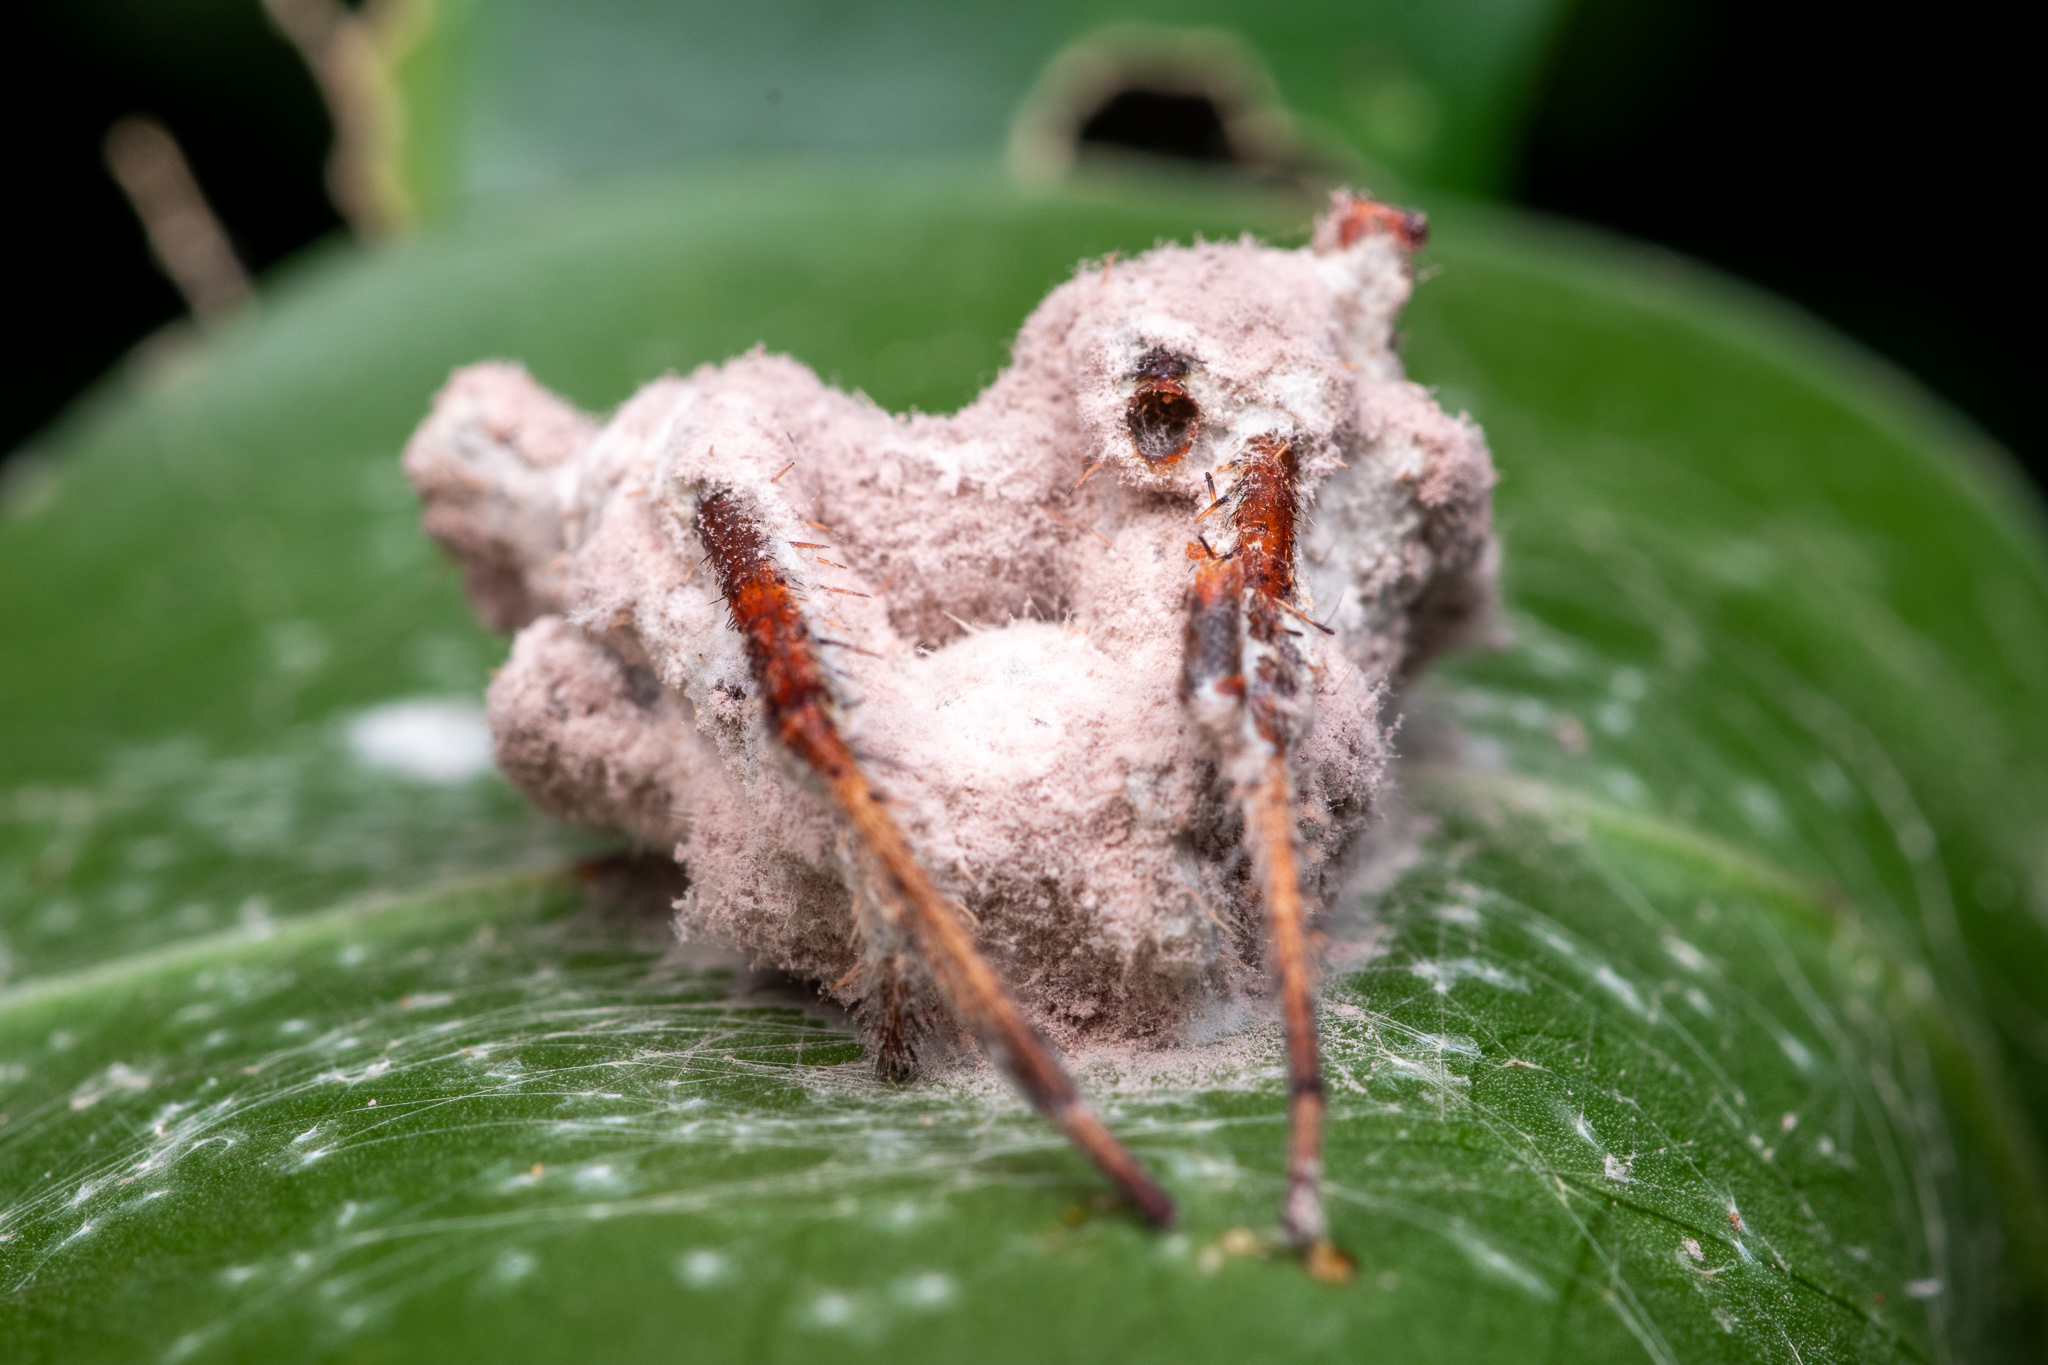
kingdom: Fungi
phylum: Ascomycota
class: Sordariomycetes
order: Hypocreales
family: Ophiocordycipitaceae
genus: Purpureocillium
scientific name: Purpureocillium atypicola
